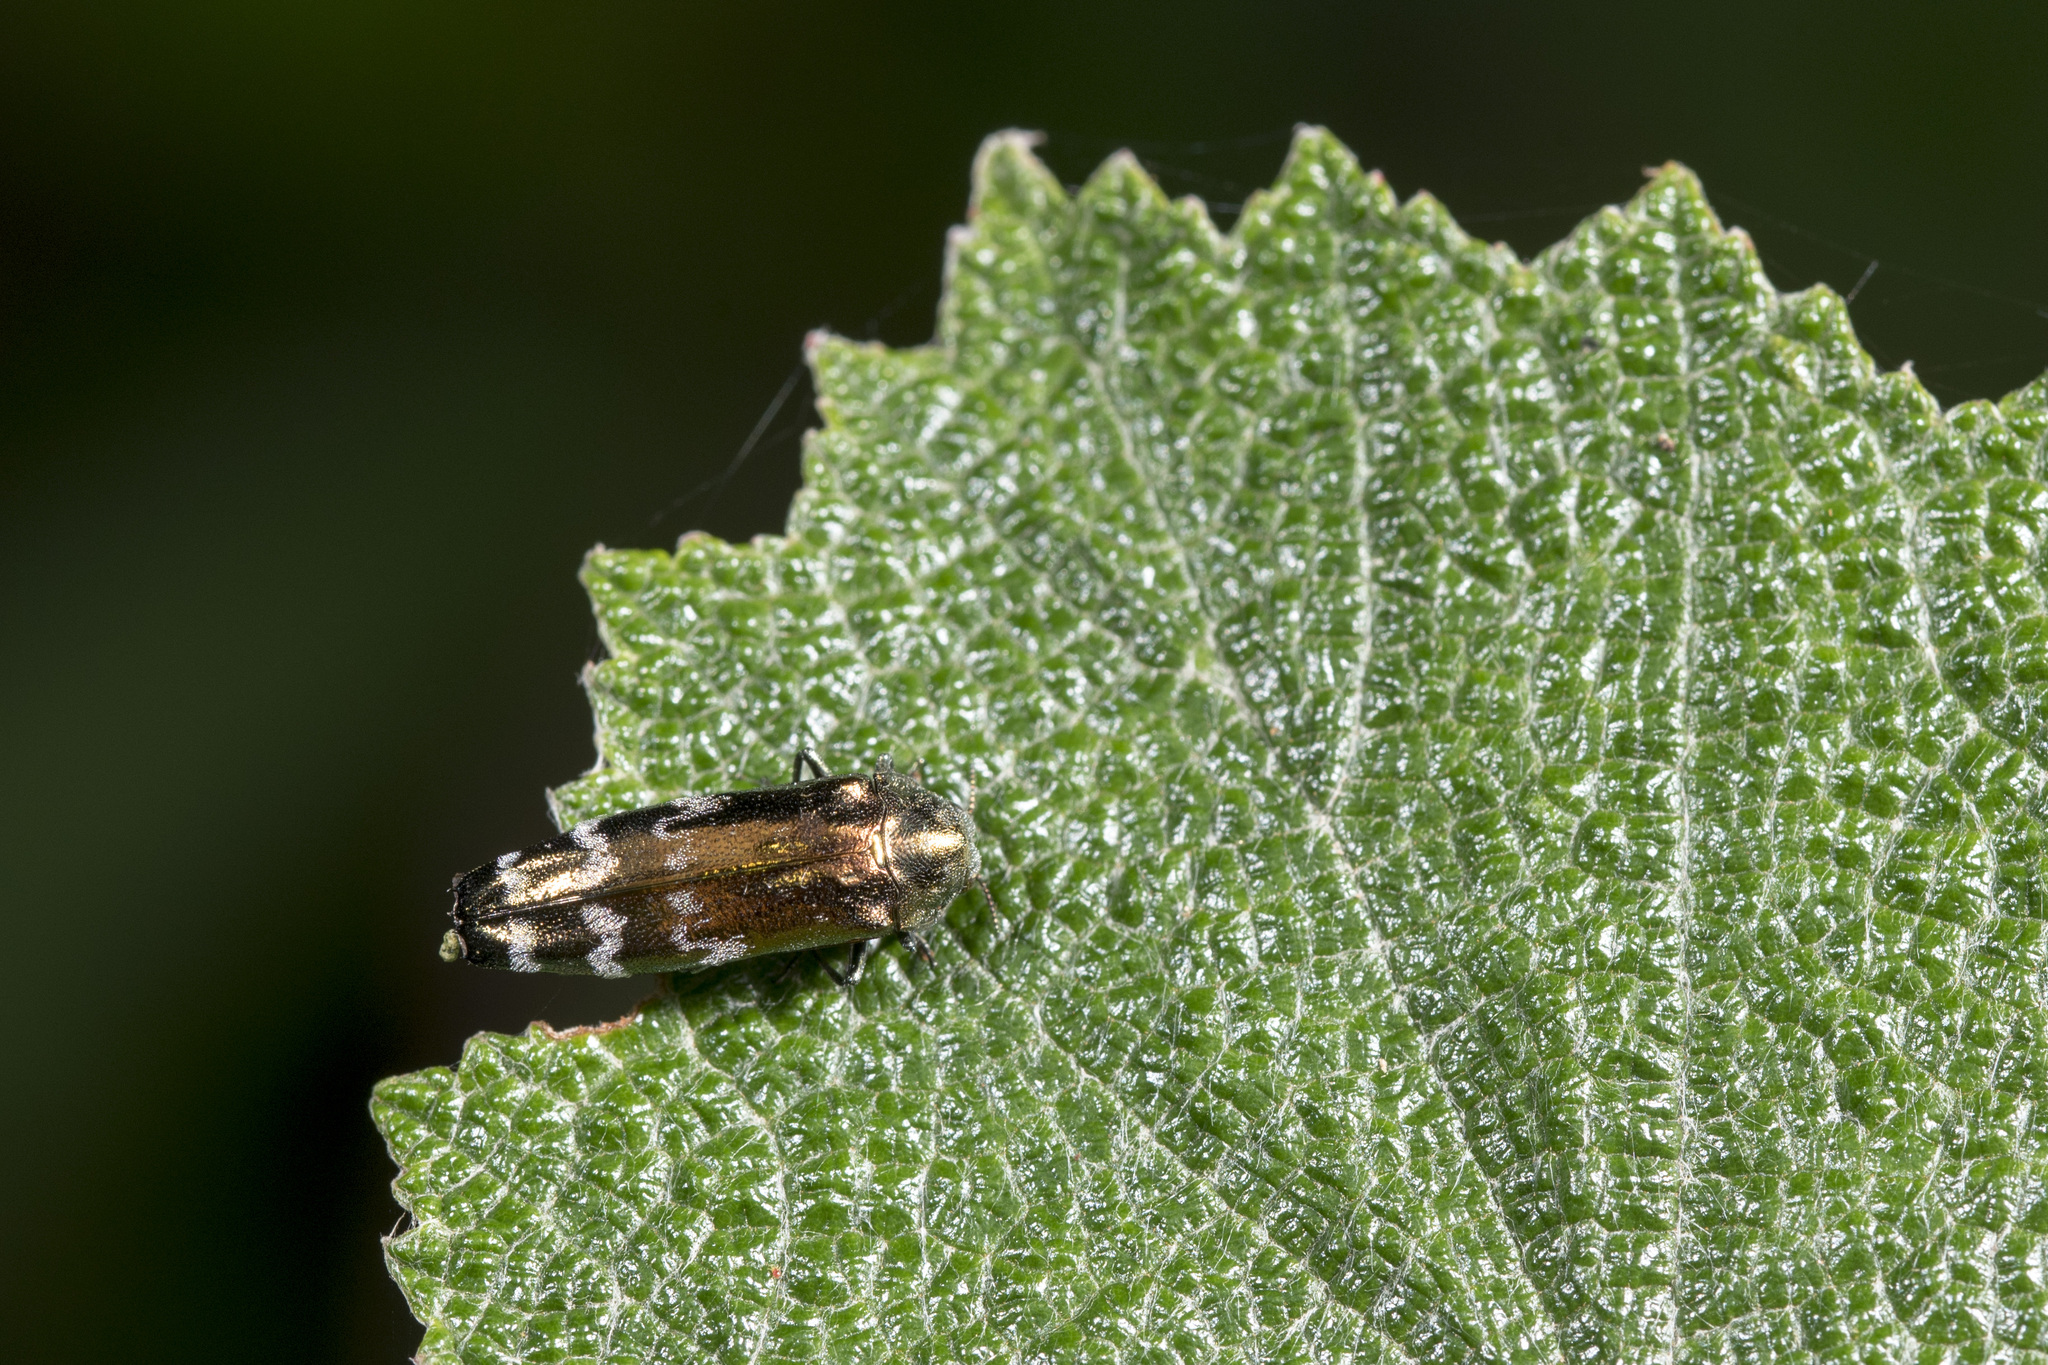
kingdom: Animalia
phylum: Arthropoda
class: Insecta
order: Coleoptera
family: Buprestidae
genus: Coraebus
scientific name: Coraebus sonani
